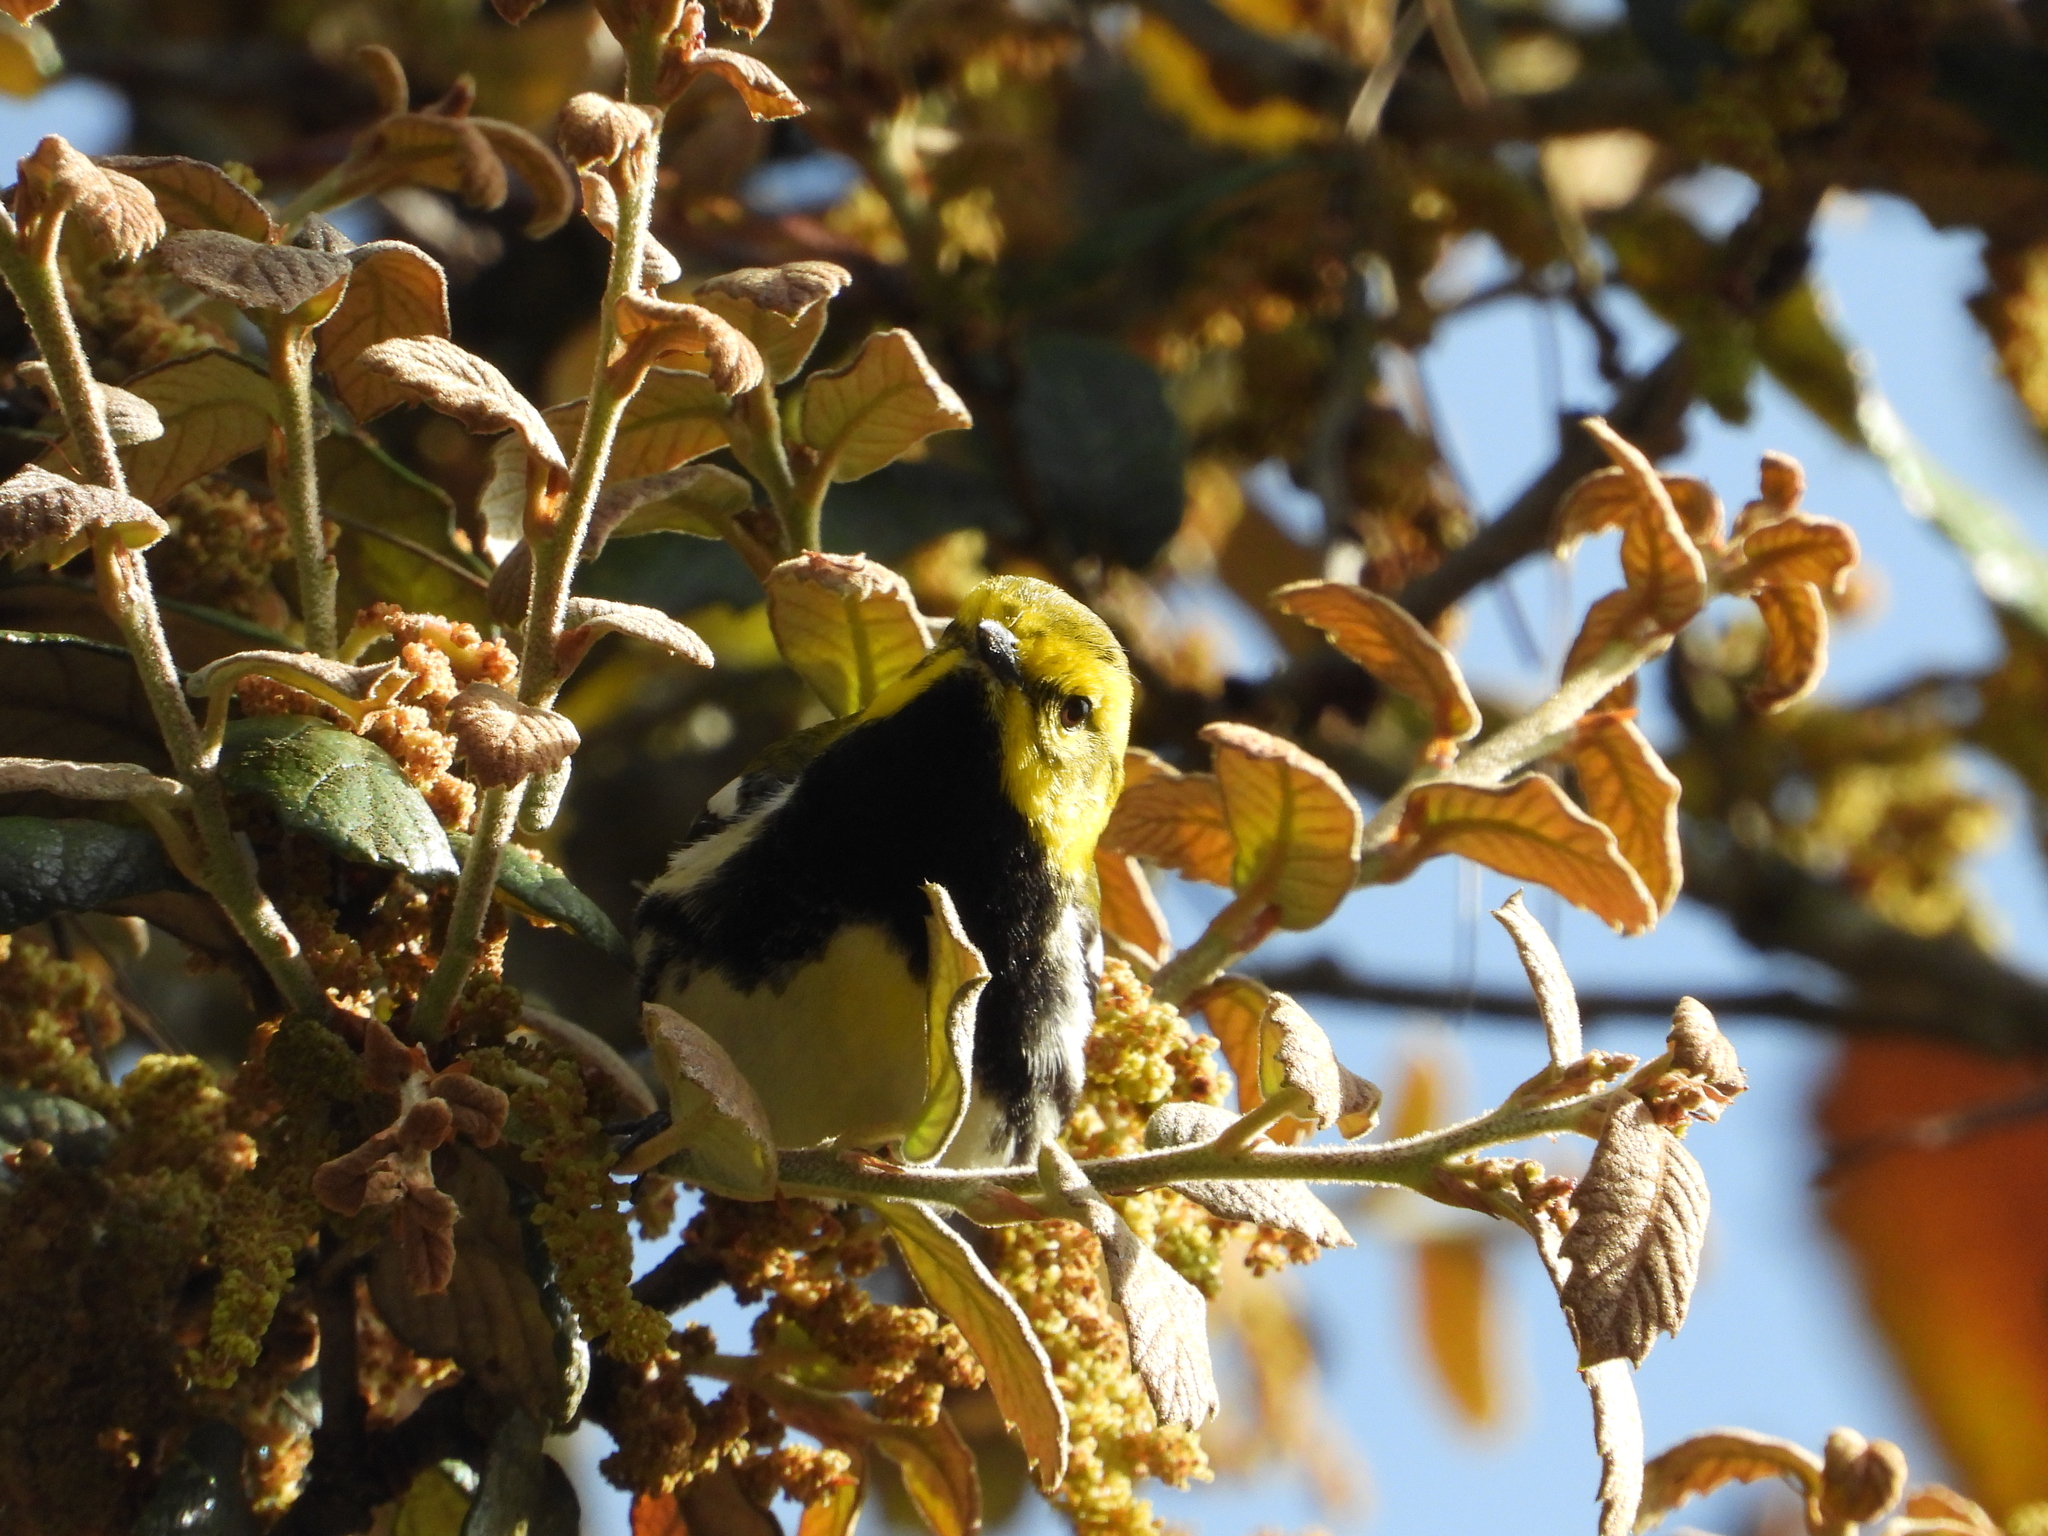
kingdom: Animalia
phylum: Chordata
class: Aves
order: Passeriformes
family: Parulidae
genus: Setophaga
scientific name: Setophaga virens
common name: Black-throated green warbler
